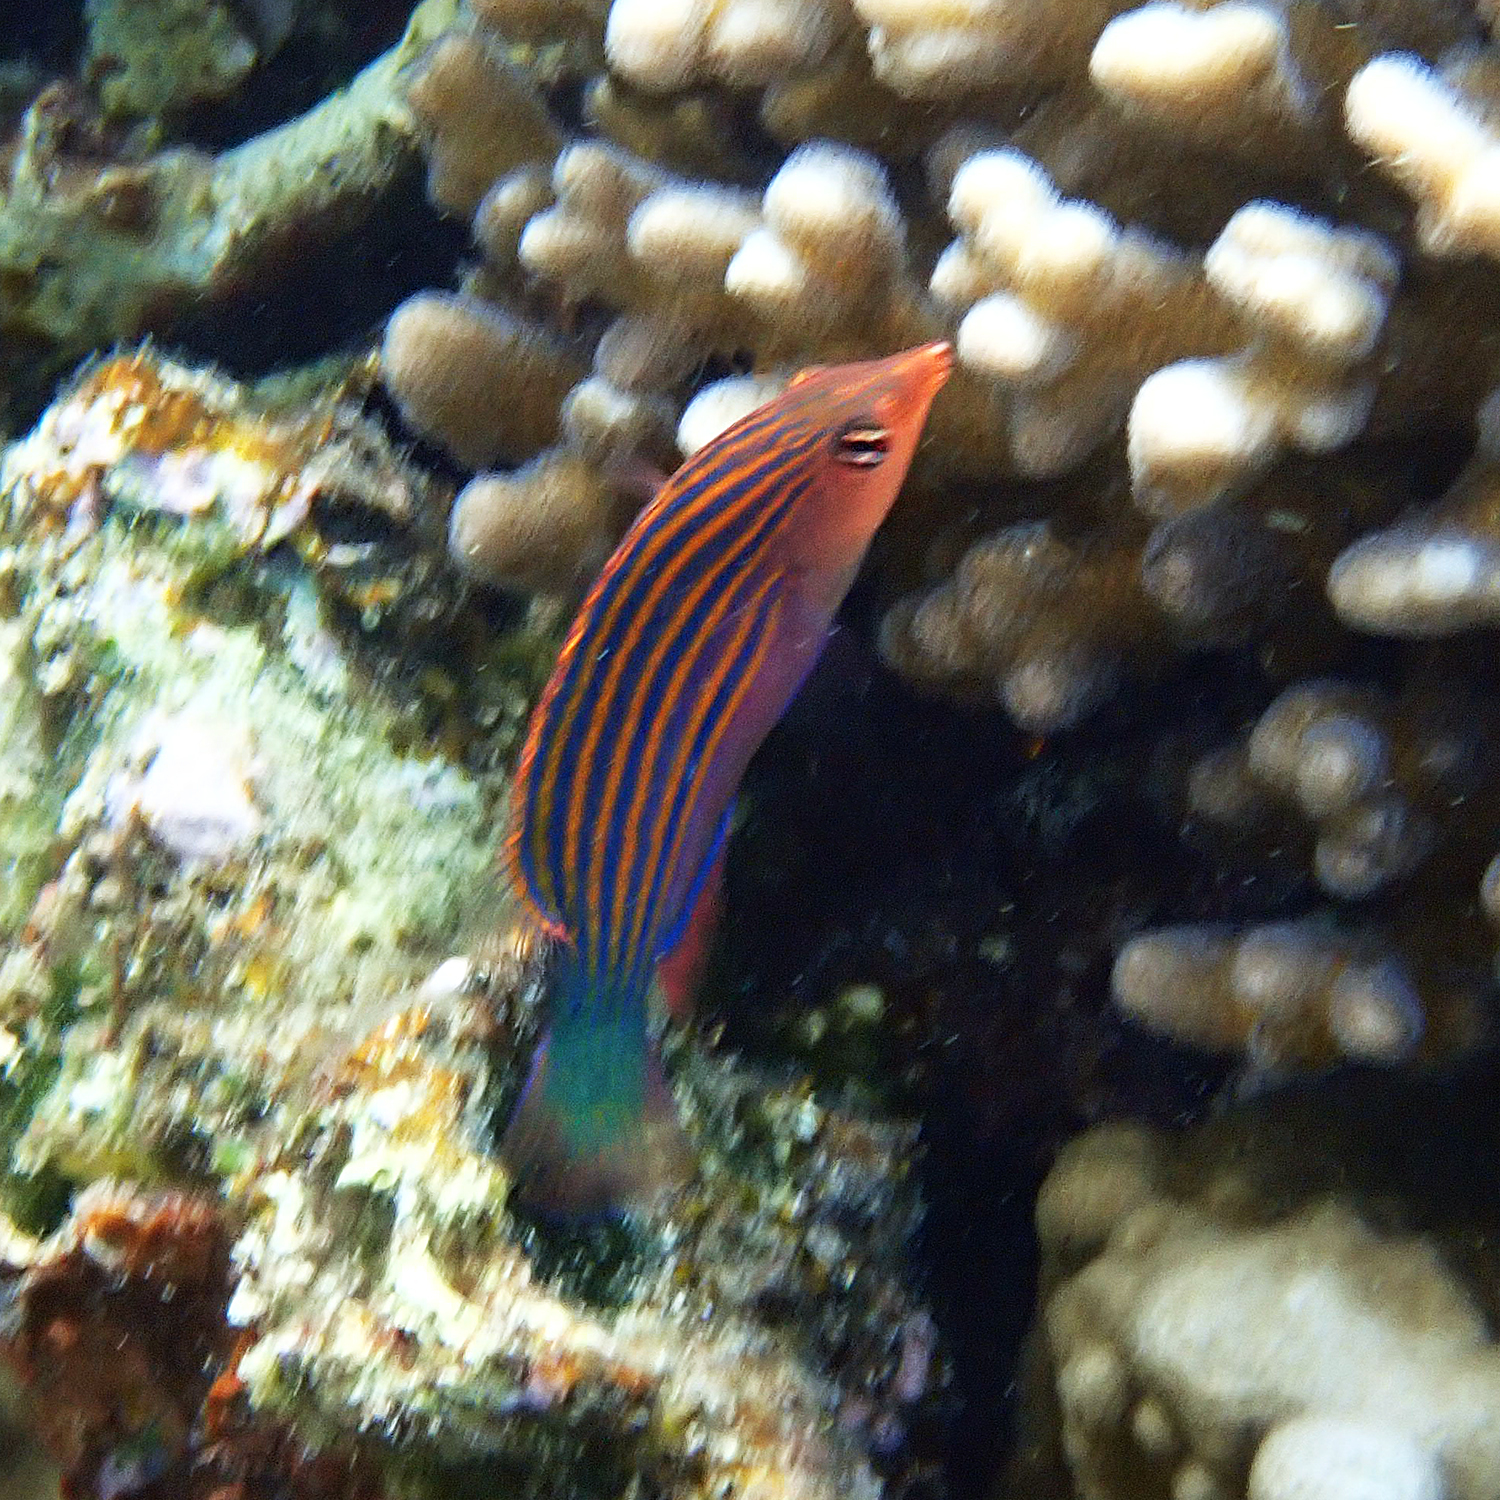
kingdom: Animalia
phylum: Chordata
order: Perciformes
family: Labridae
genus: Pseudocheilinus
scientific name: Pseudocheilinus hexataenia
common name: Sixline wrasse
